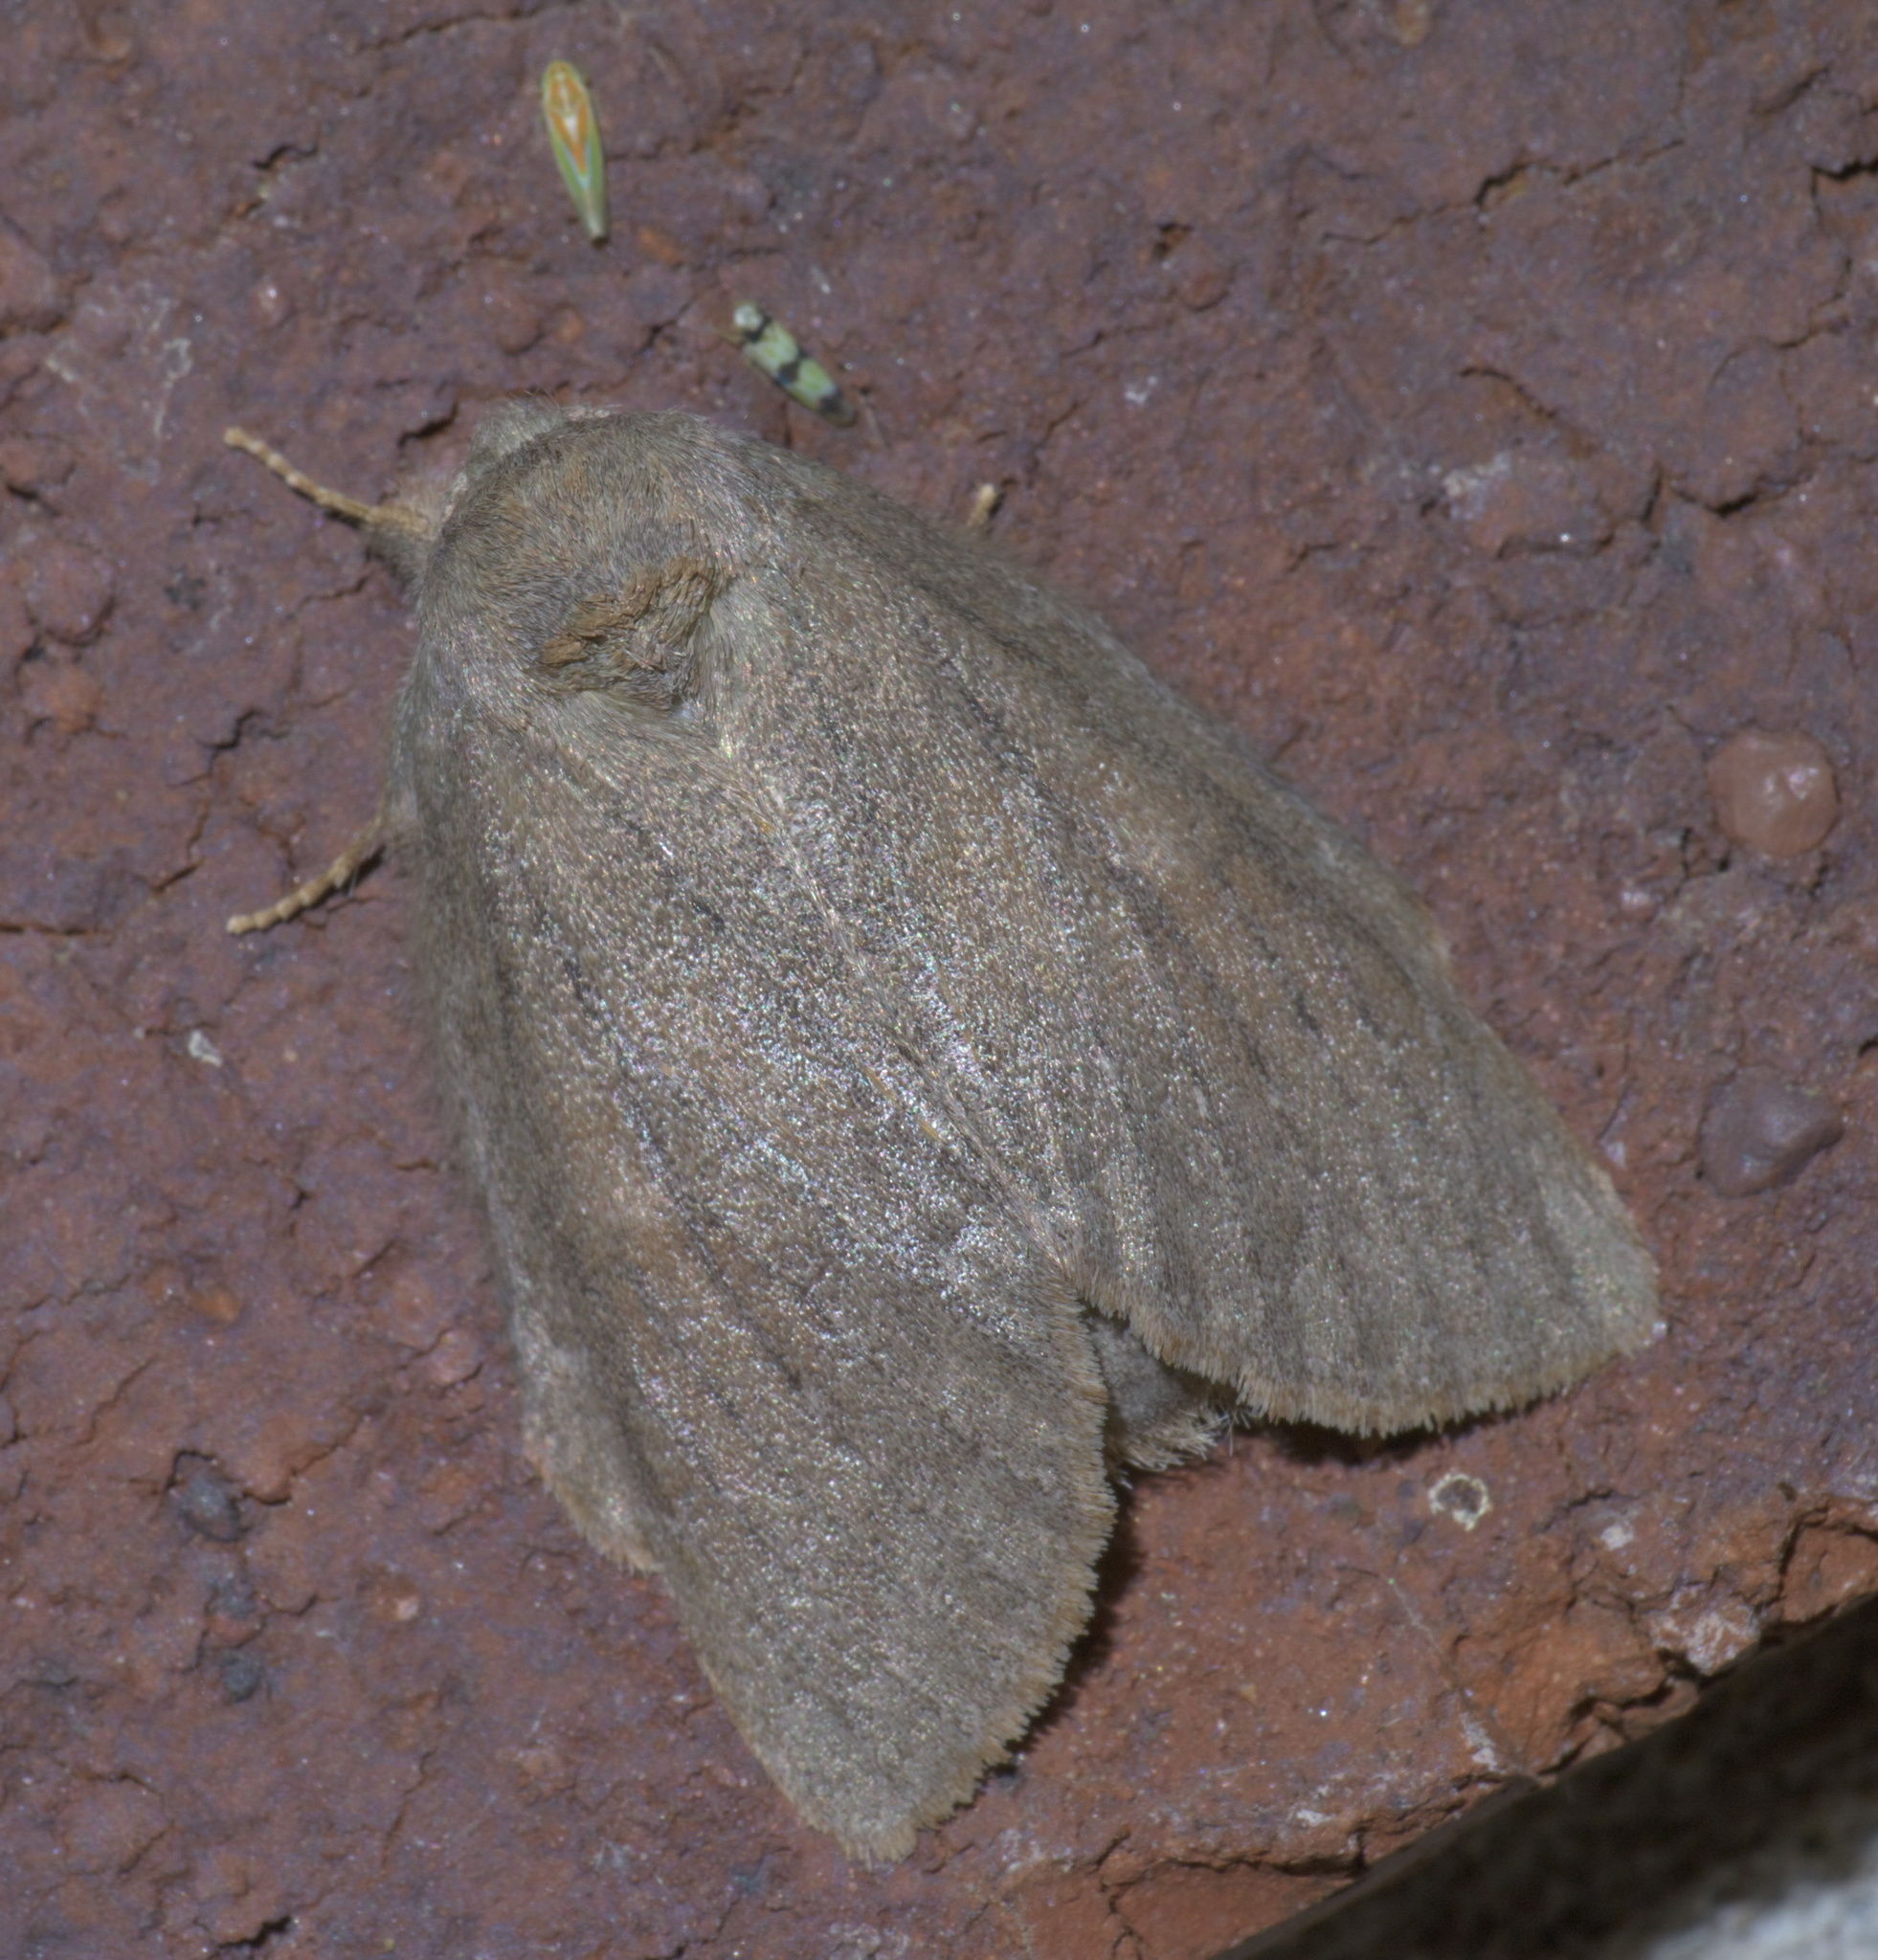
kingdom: Animalia
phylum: Arthropoda
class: Insecta
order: Lepidoptera
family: Notodontidae
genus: Misogada
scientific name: Misogada unicolor
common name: Drab prominent
